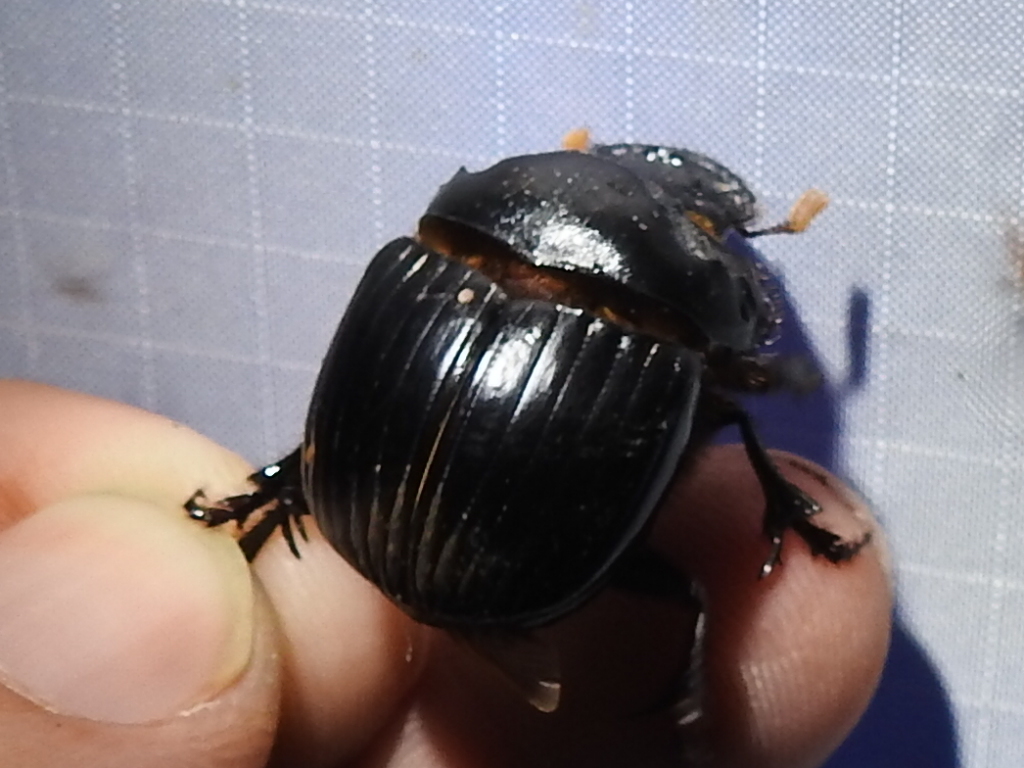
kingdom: Animalia
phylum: Arthropoda
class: Insecta
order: Coleoptera
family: Scarabaeidae
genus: Dichotomius
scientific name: Dichotomius colonicus
